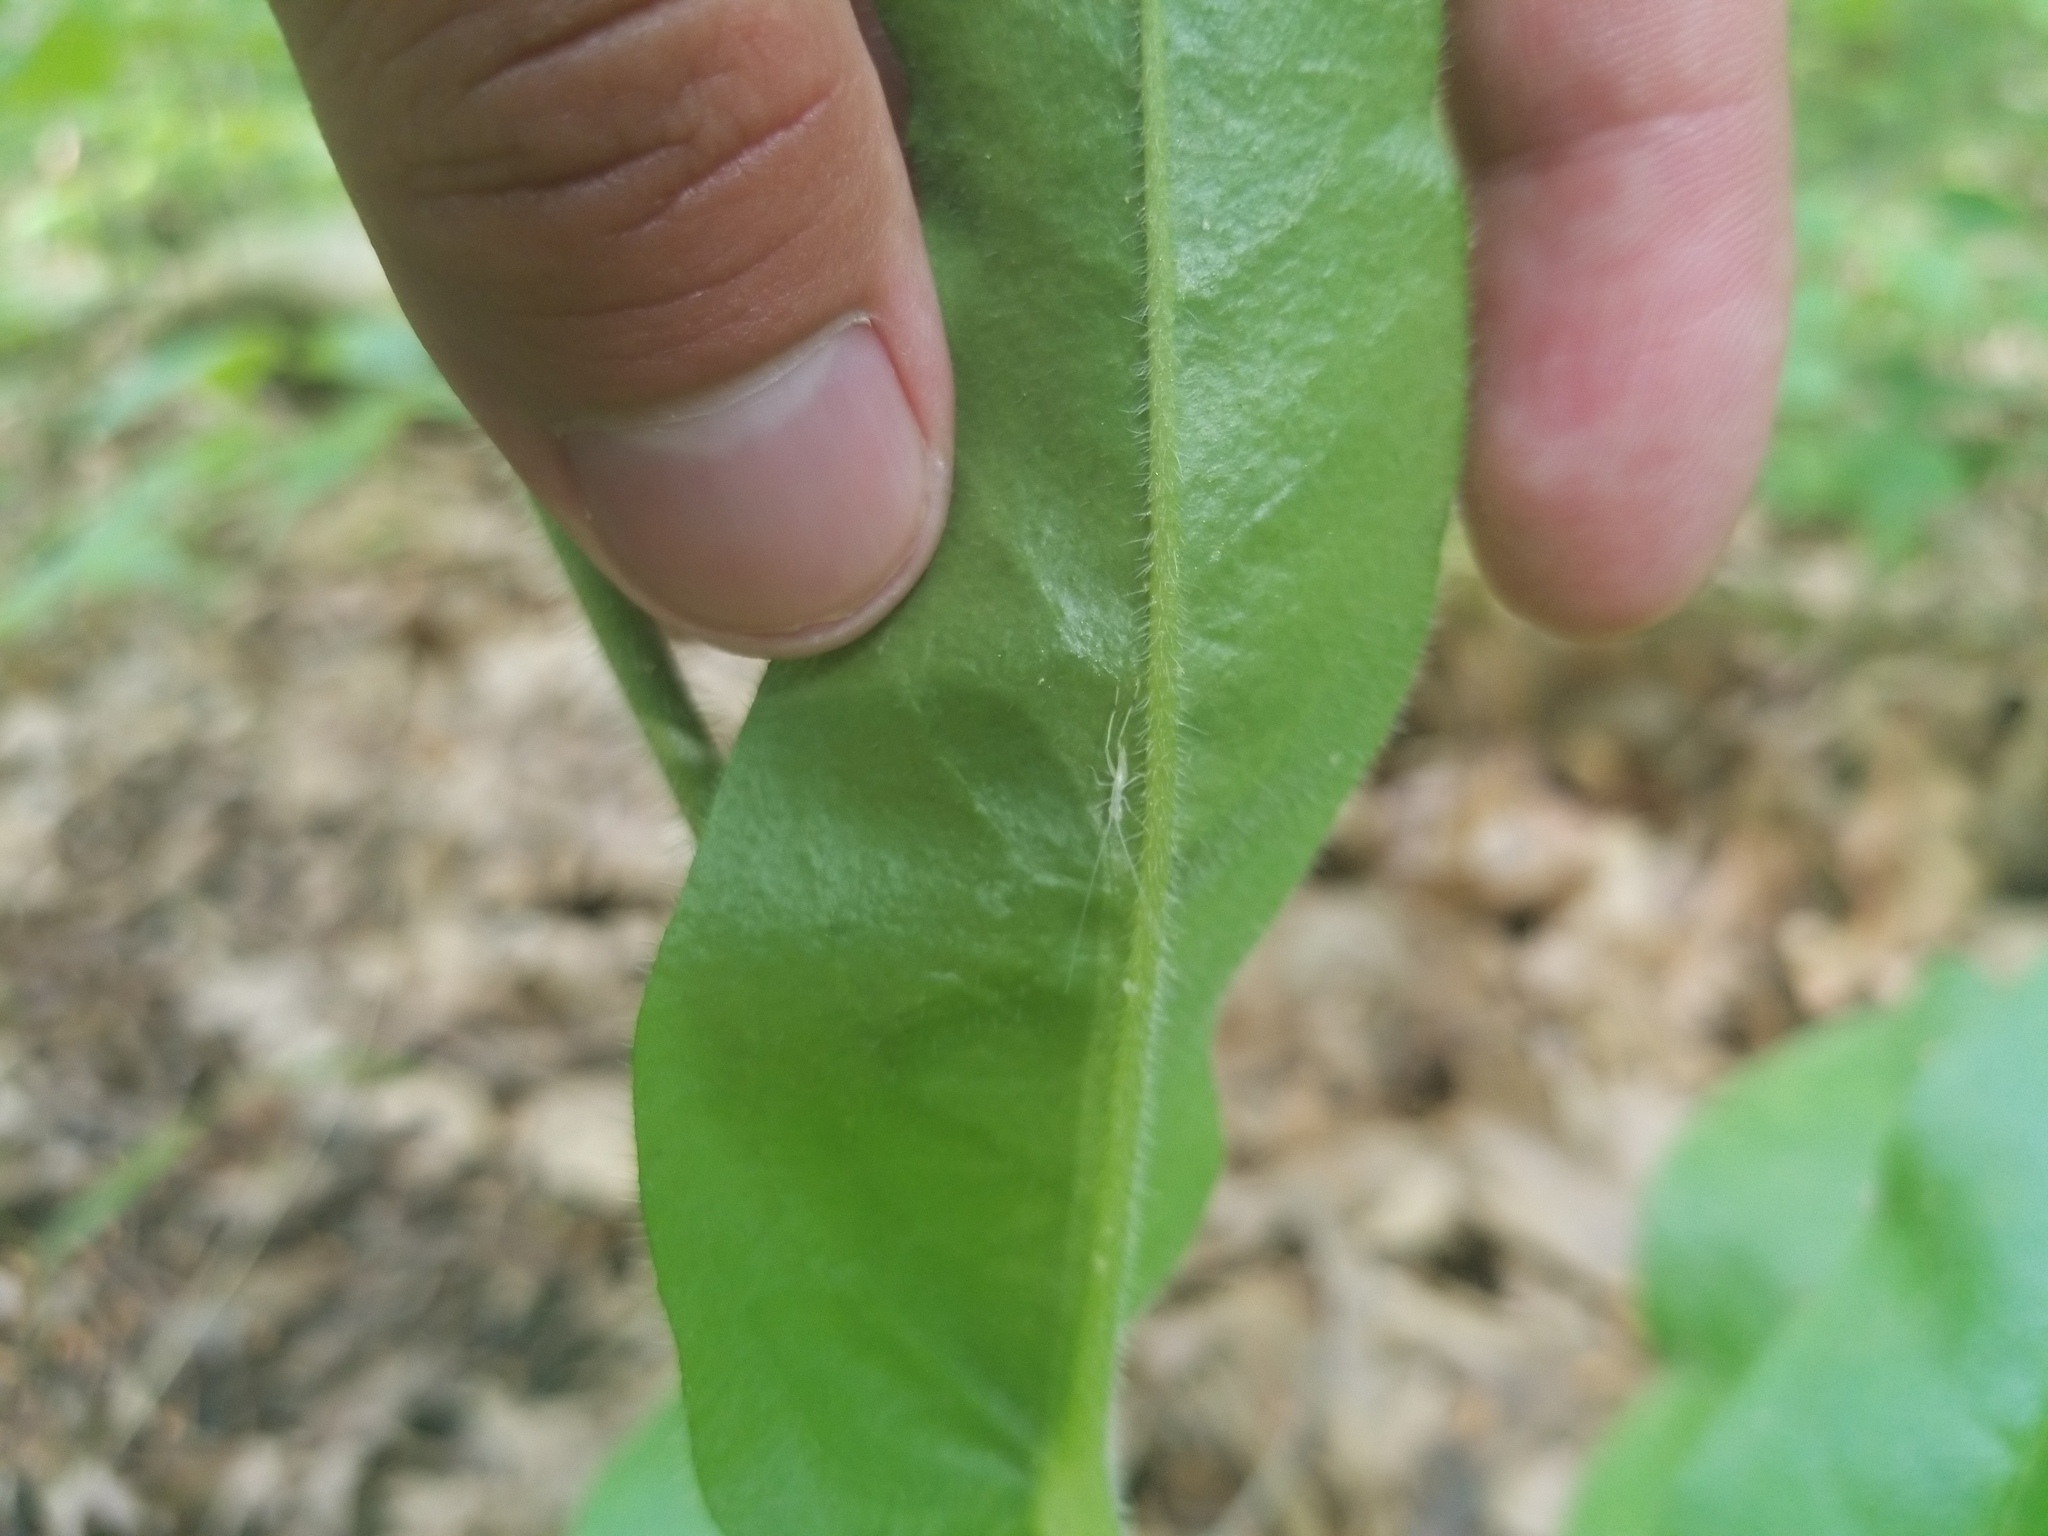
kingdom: Plantae
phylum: Tracheophyta
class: Magnoliopsida
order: Boraginales
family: Boraginaceae
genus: Andersonglossum
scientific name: Andersonglossum virginianum
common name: Wild comfrey
